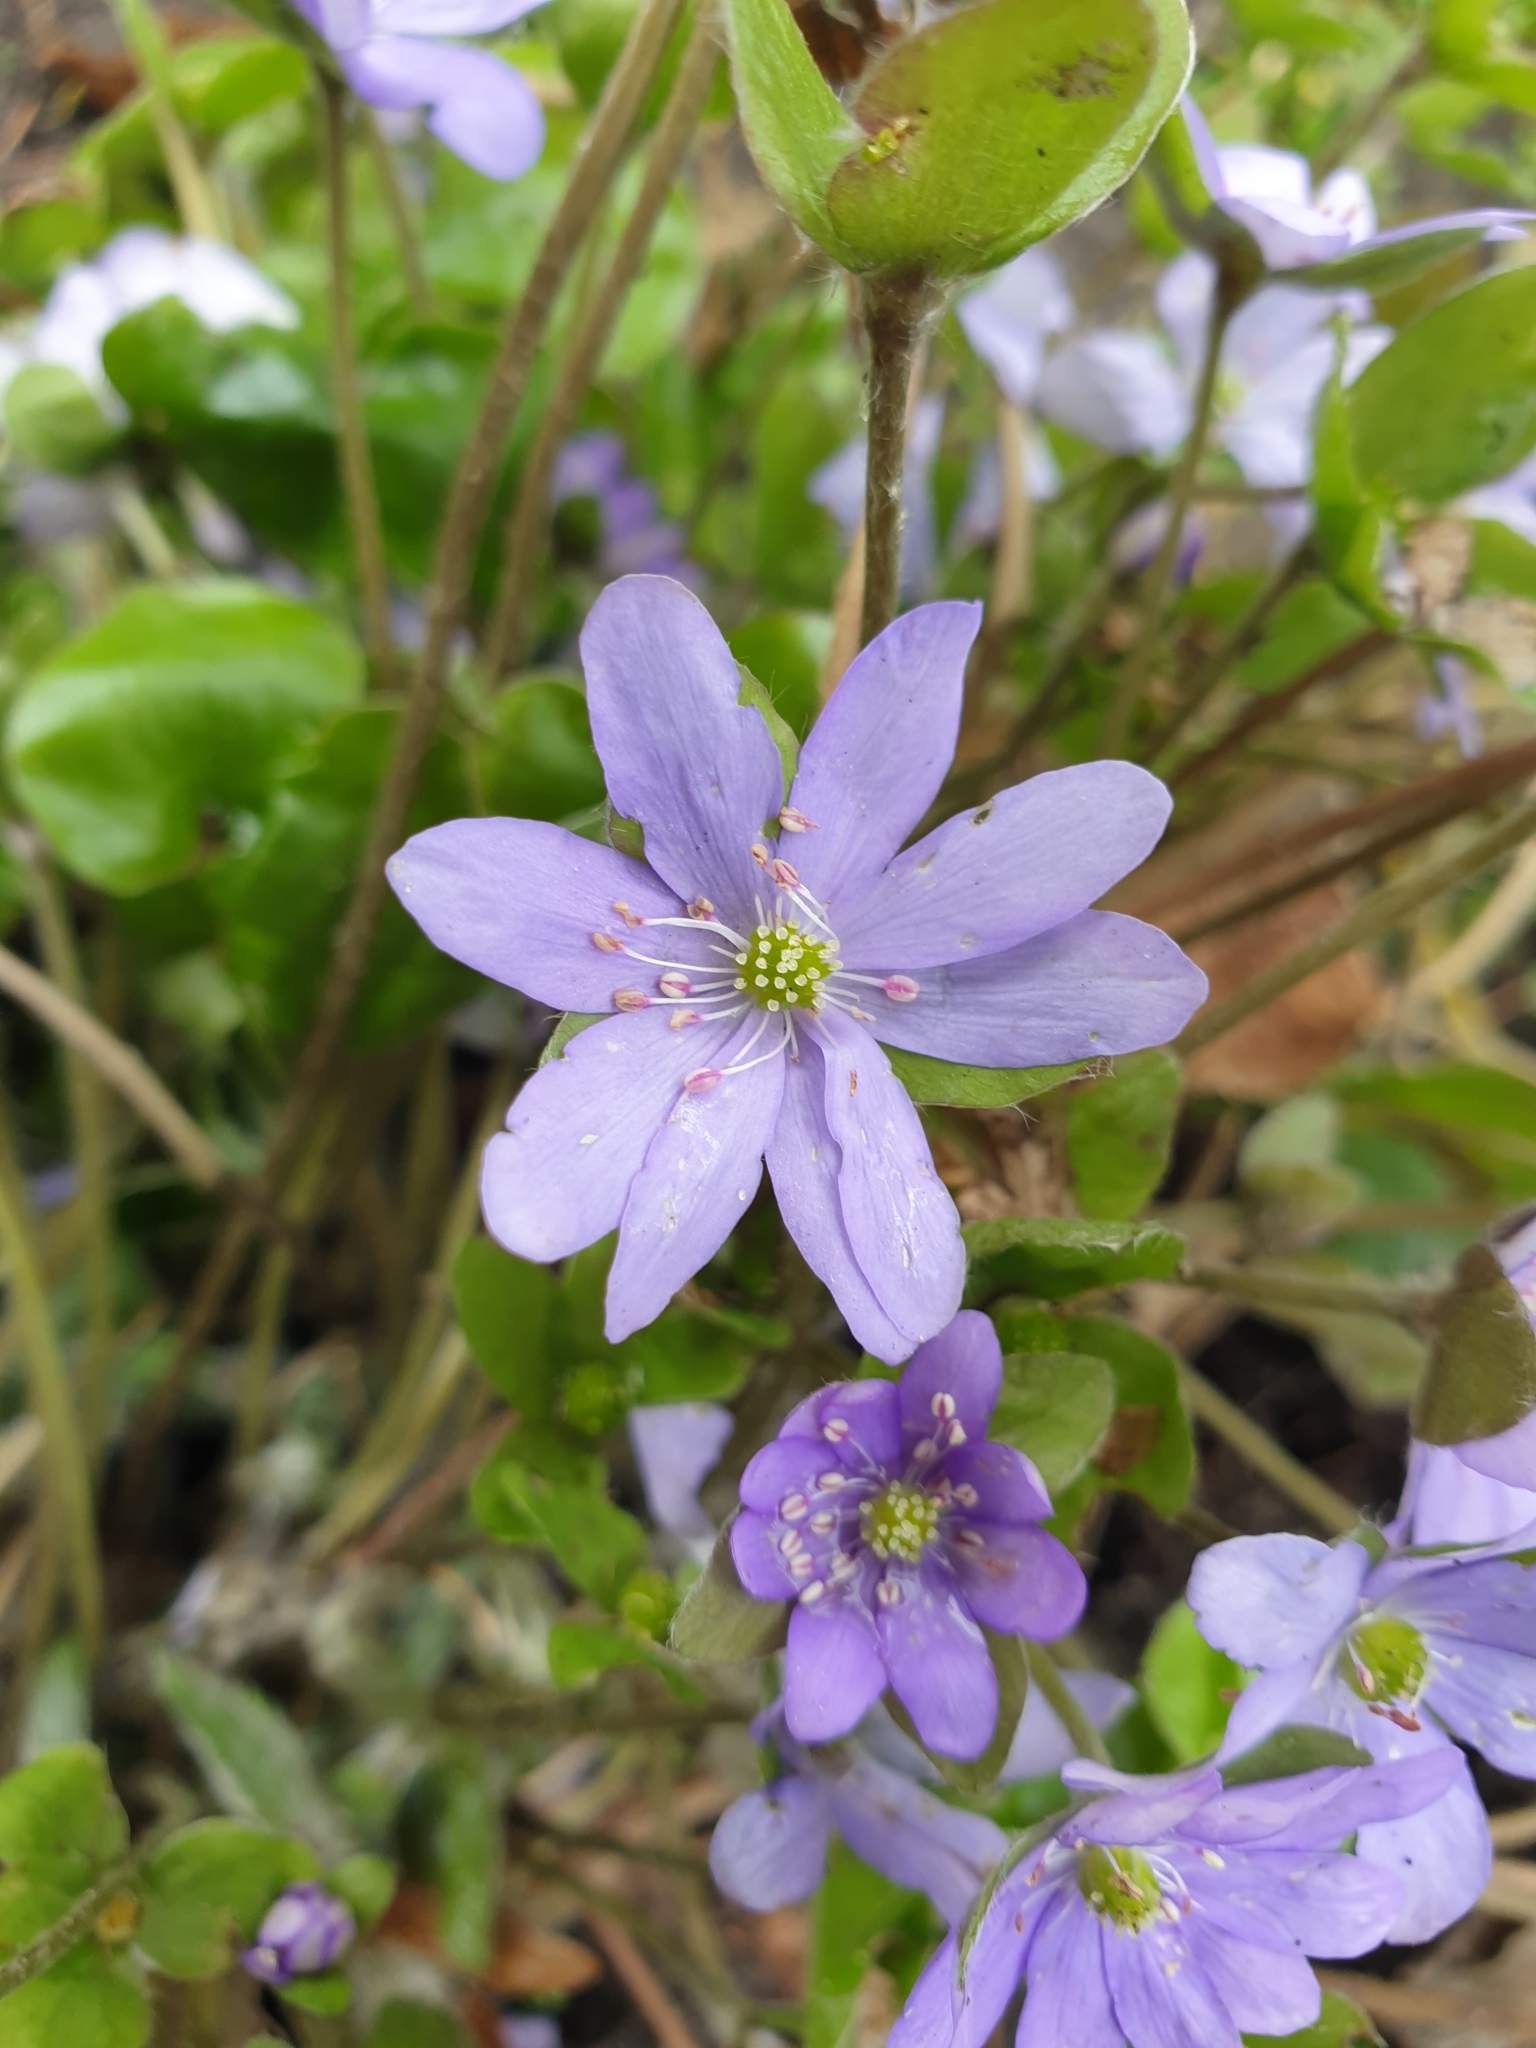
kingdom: Plantae
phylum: Tracheophyta
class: Magnoliopsida
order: Ranunculales
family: Ranunculaceae
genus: Hepatica
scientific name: Hepatica nobilis
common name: Liverleaf
